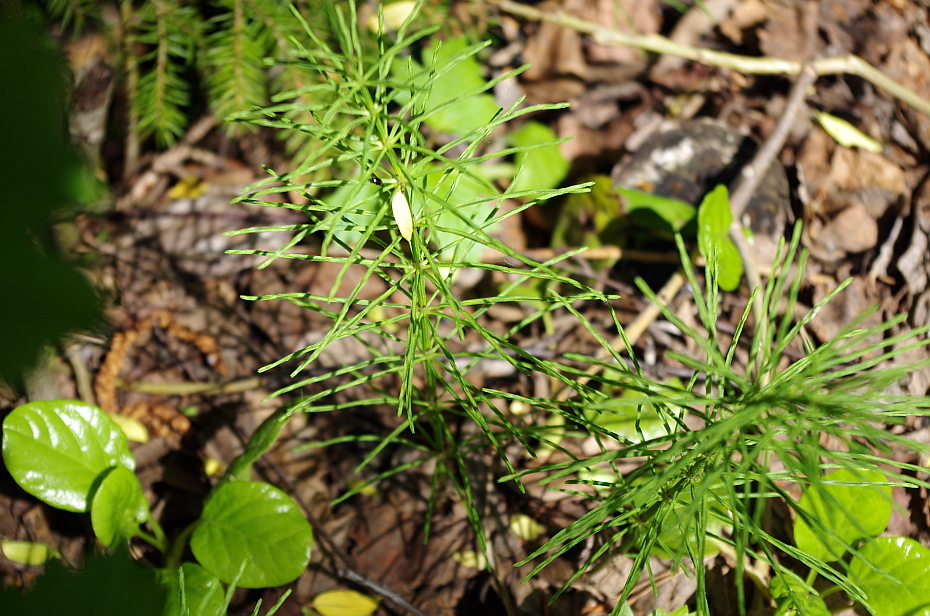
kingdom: Plantae
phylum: Tracheophyta
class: Polypodiopsida
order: Equisetales
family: Equisetaceae
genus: Equisetum
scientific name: Equisetum arvense
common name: Field horsetail
